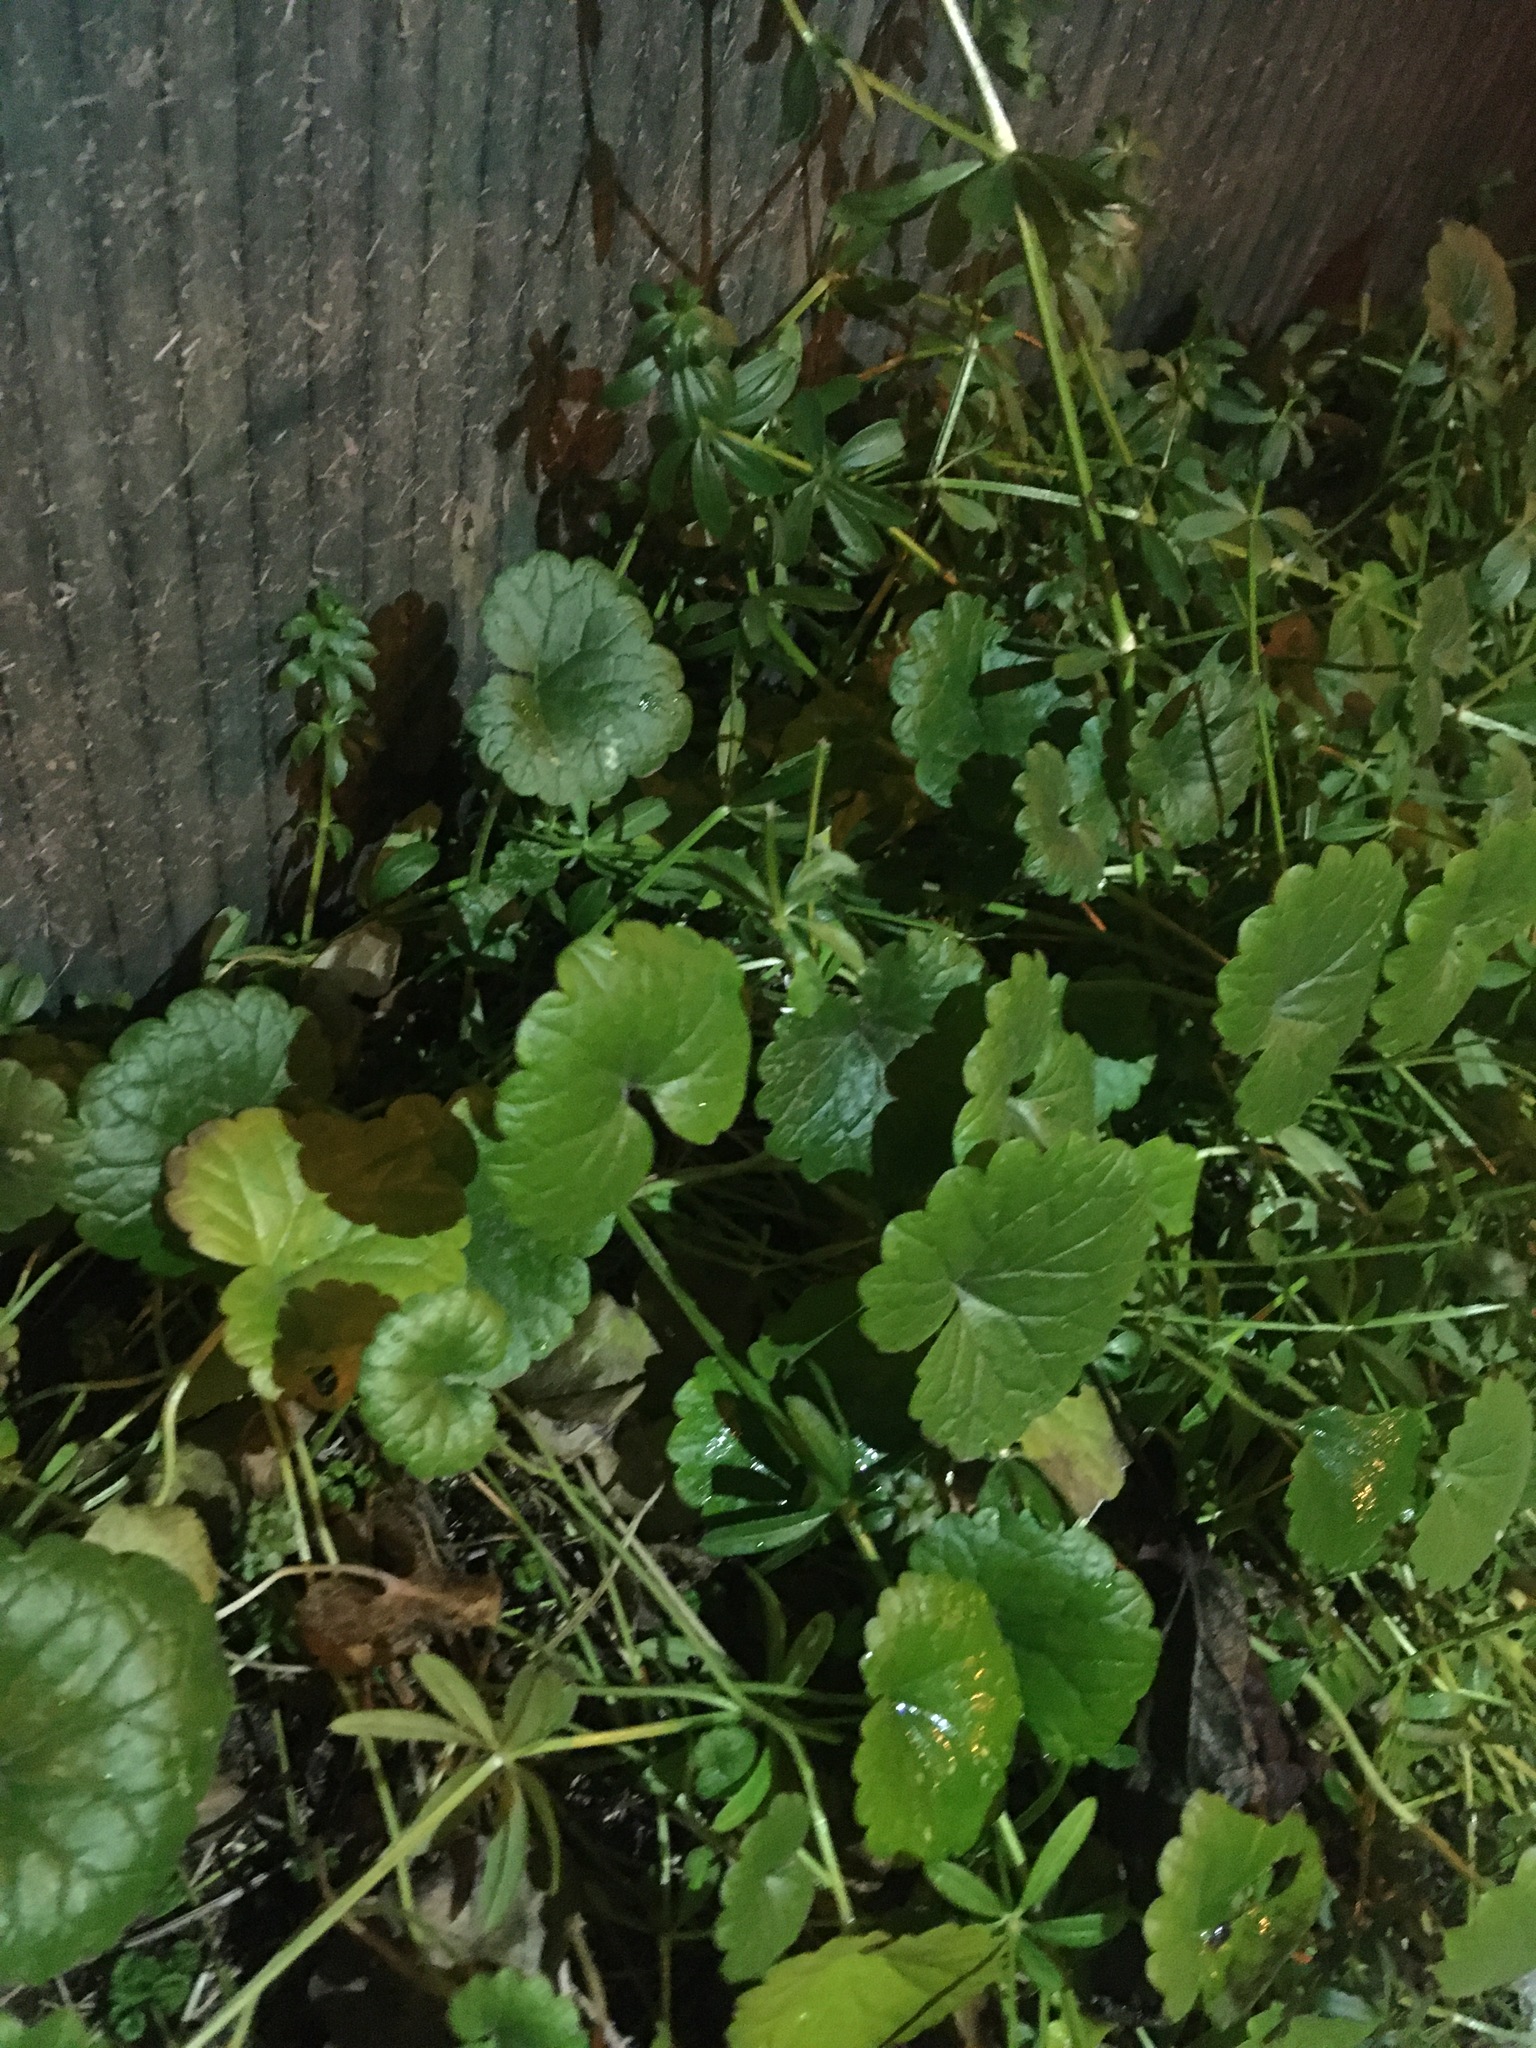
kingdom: Plantae
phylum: Tracheophyta
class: Magnoliopsida
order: Lamiales
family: Lamiaceae
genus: Glechoma
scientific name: Glechoma hederacea
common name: Ground ivy
